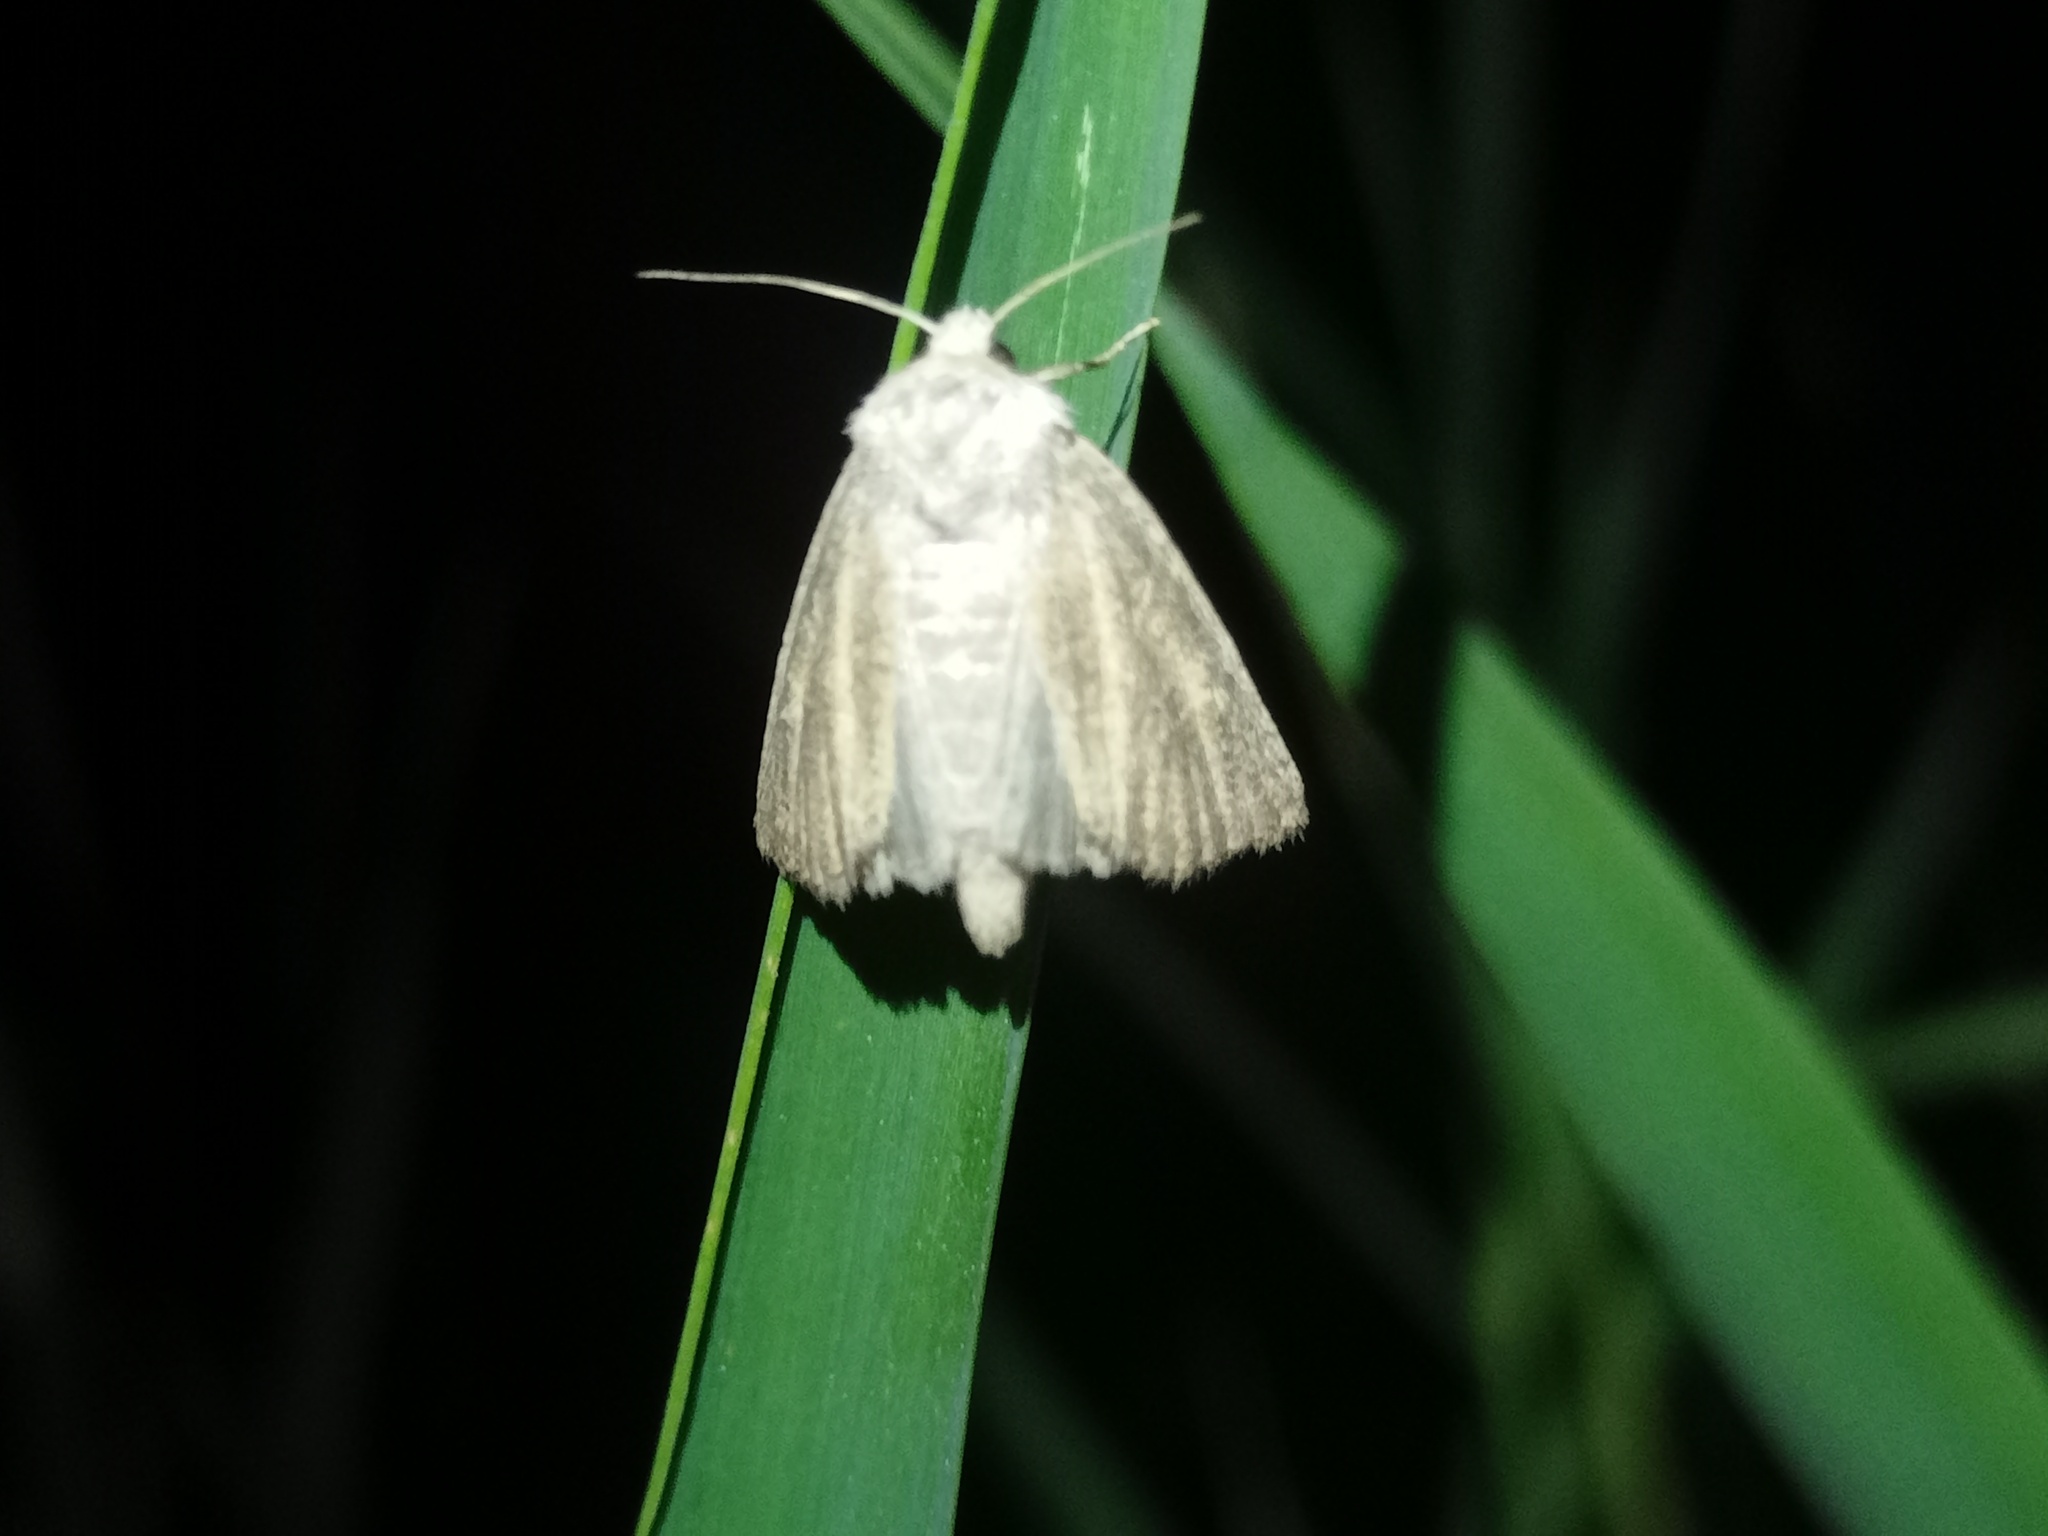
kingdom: Animalia
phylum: Arthropoda
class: Insecta
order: Lepidoptera
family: Noctuidae
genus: Photedes
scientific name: Photedes fluxa
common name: Mere wainscot
